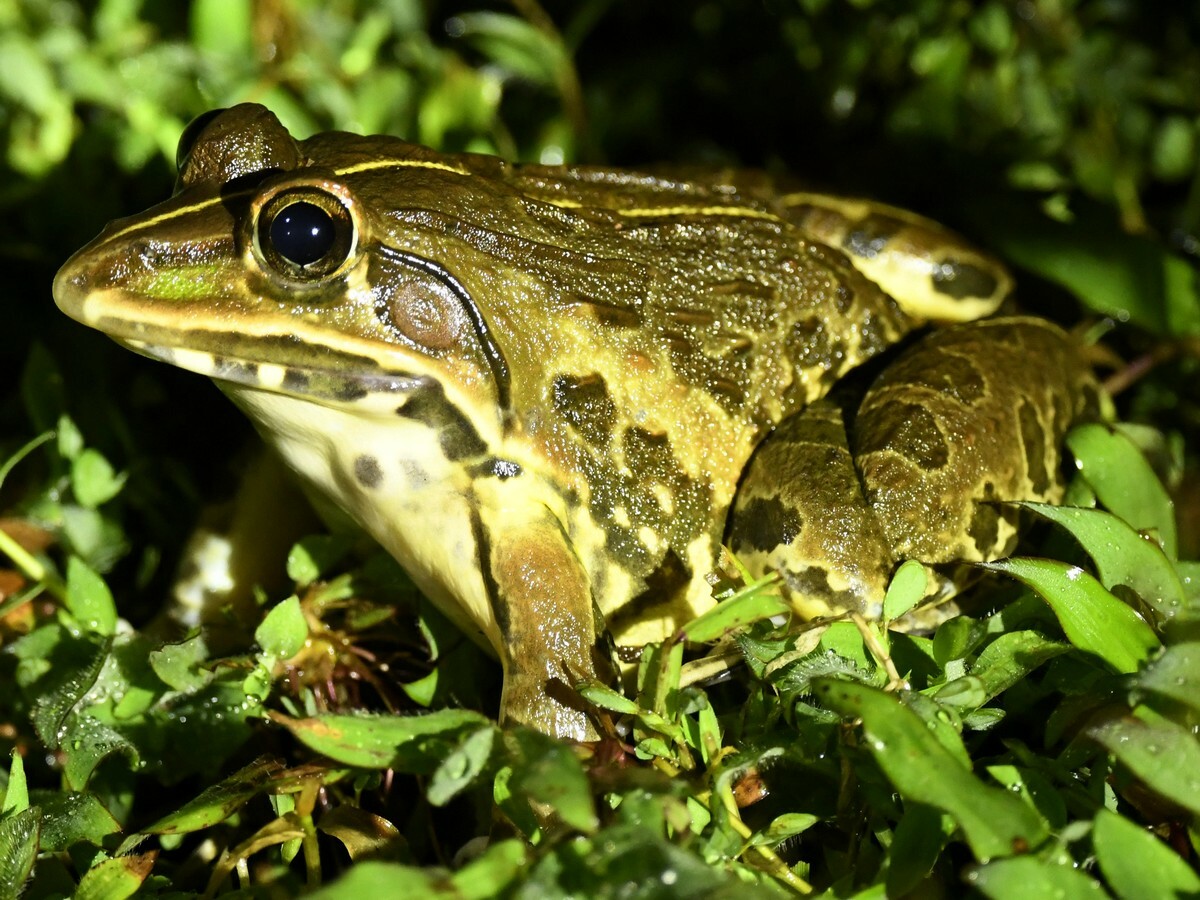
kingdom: Animalia
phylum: Chordata
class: Amphibia
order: Anura
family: Dicroglossidae
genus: Hoplobatrachus
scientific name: Hoplobatrachus tigerinus
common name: Indian bullfrog
